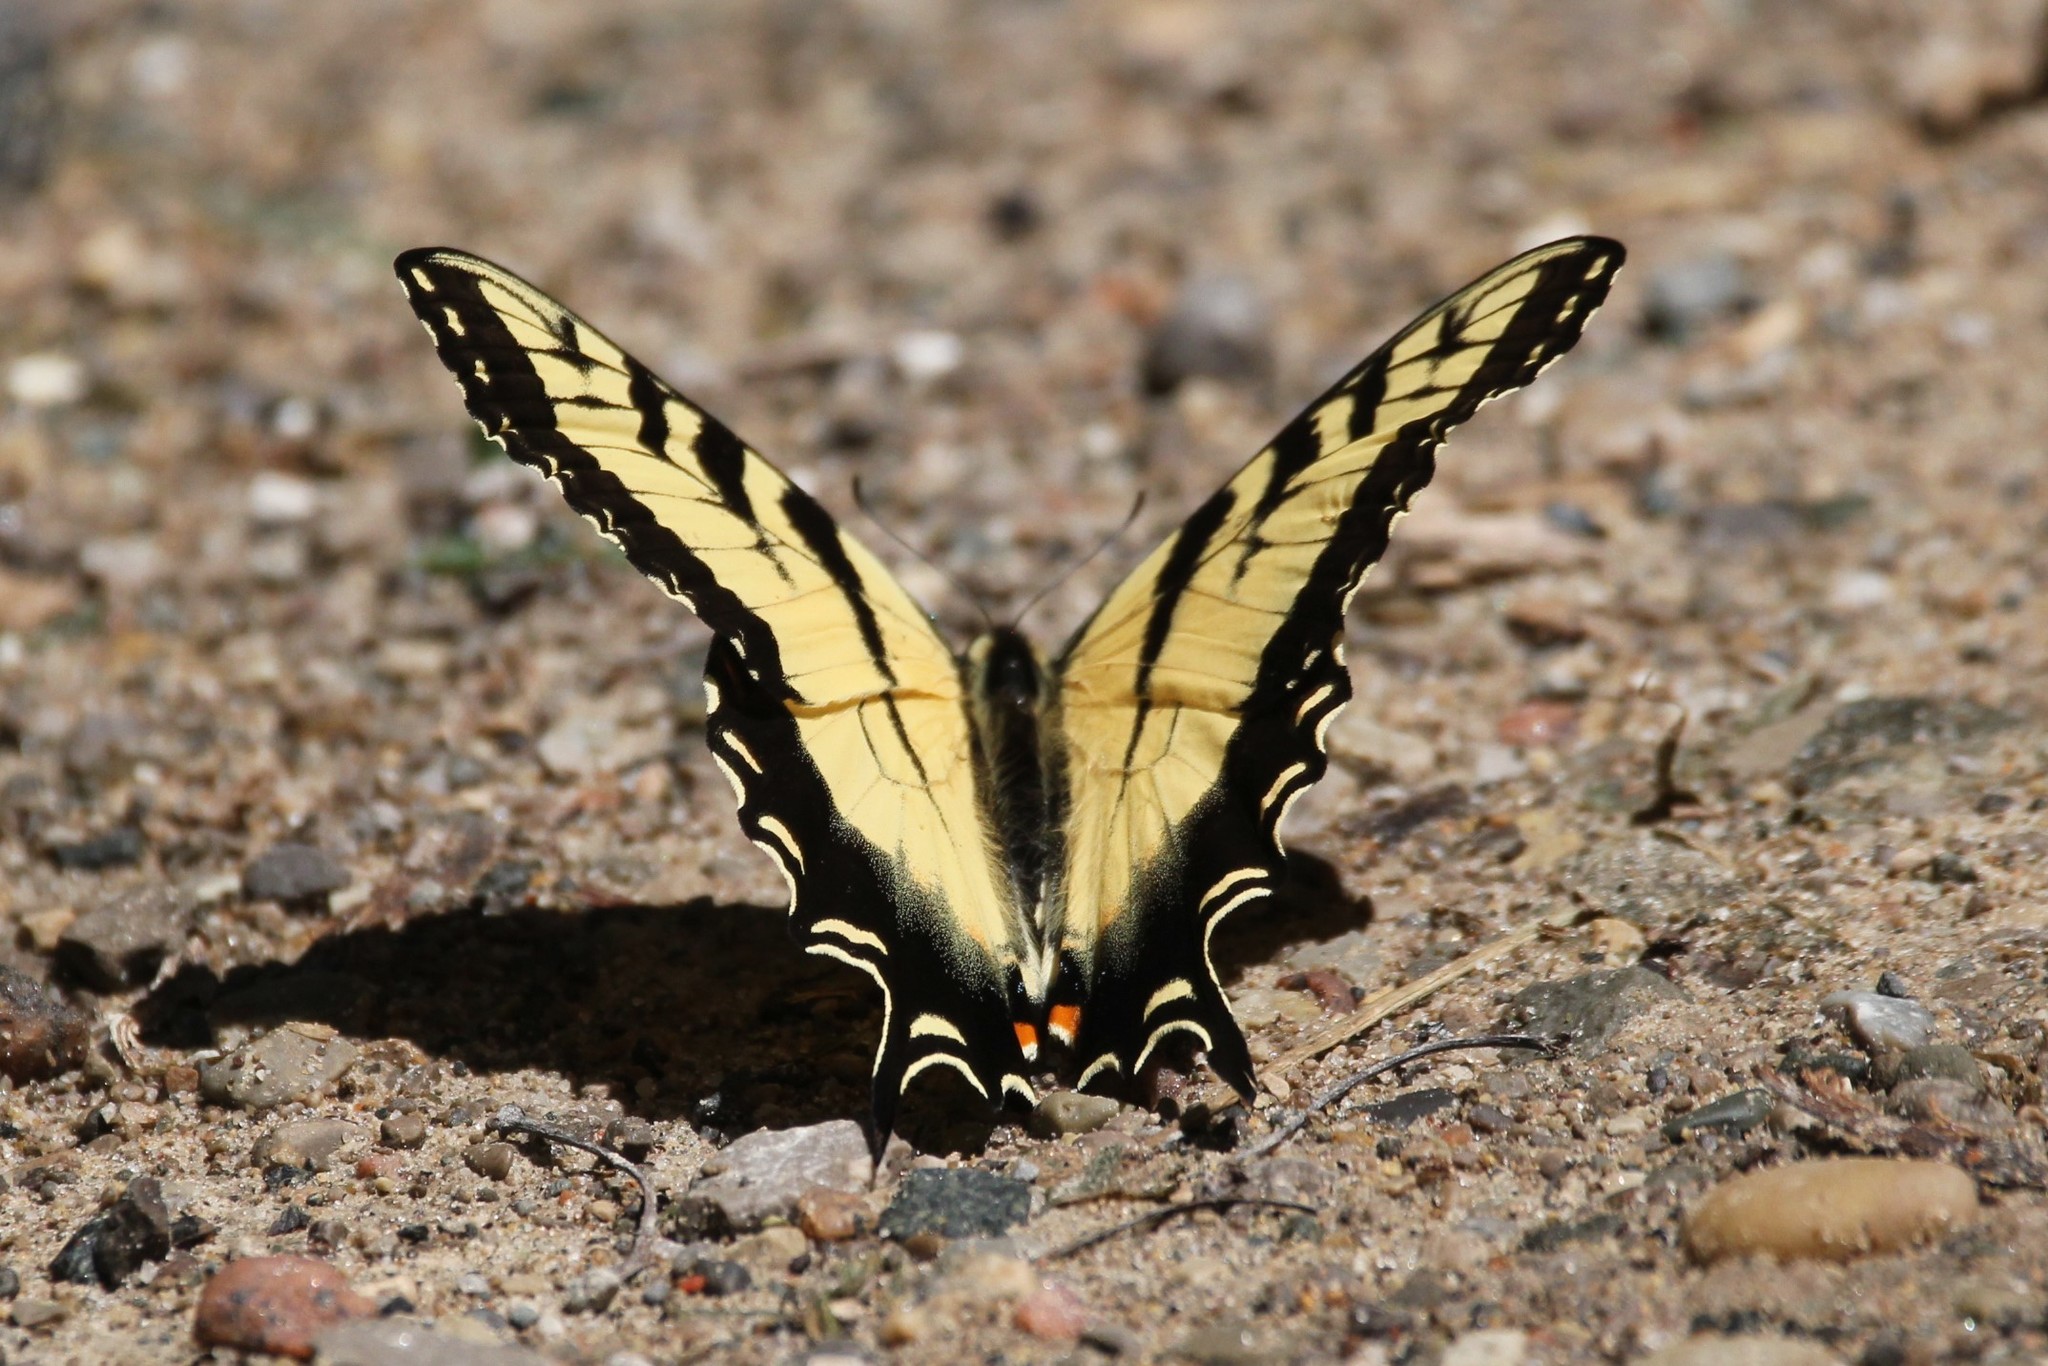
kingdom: Animalia
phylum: Arthropoda
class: Insecta
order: Lepidoptera
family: Papilionidae
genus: Papilio
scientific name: Papilio glaucus
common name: Tiger swallowtail
